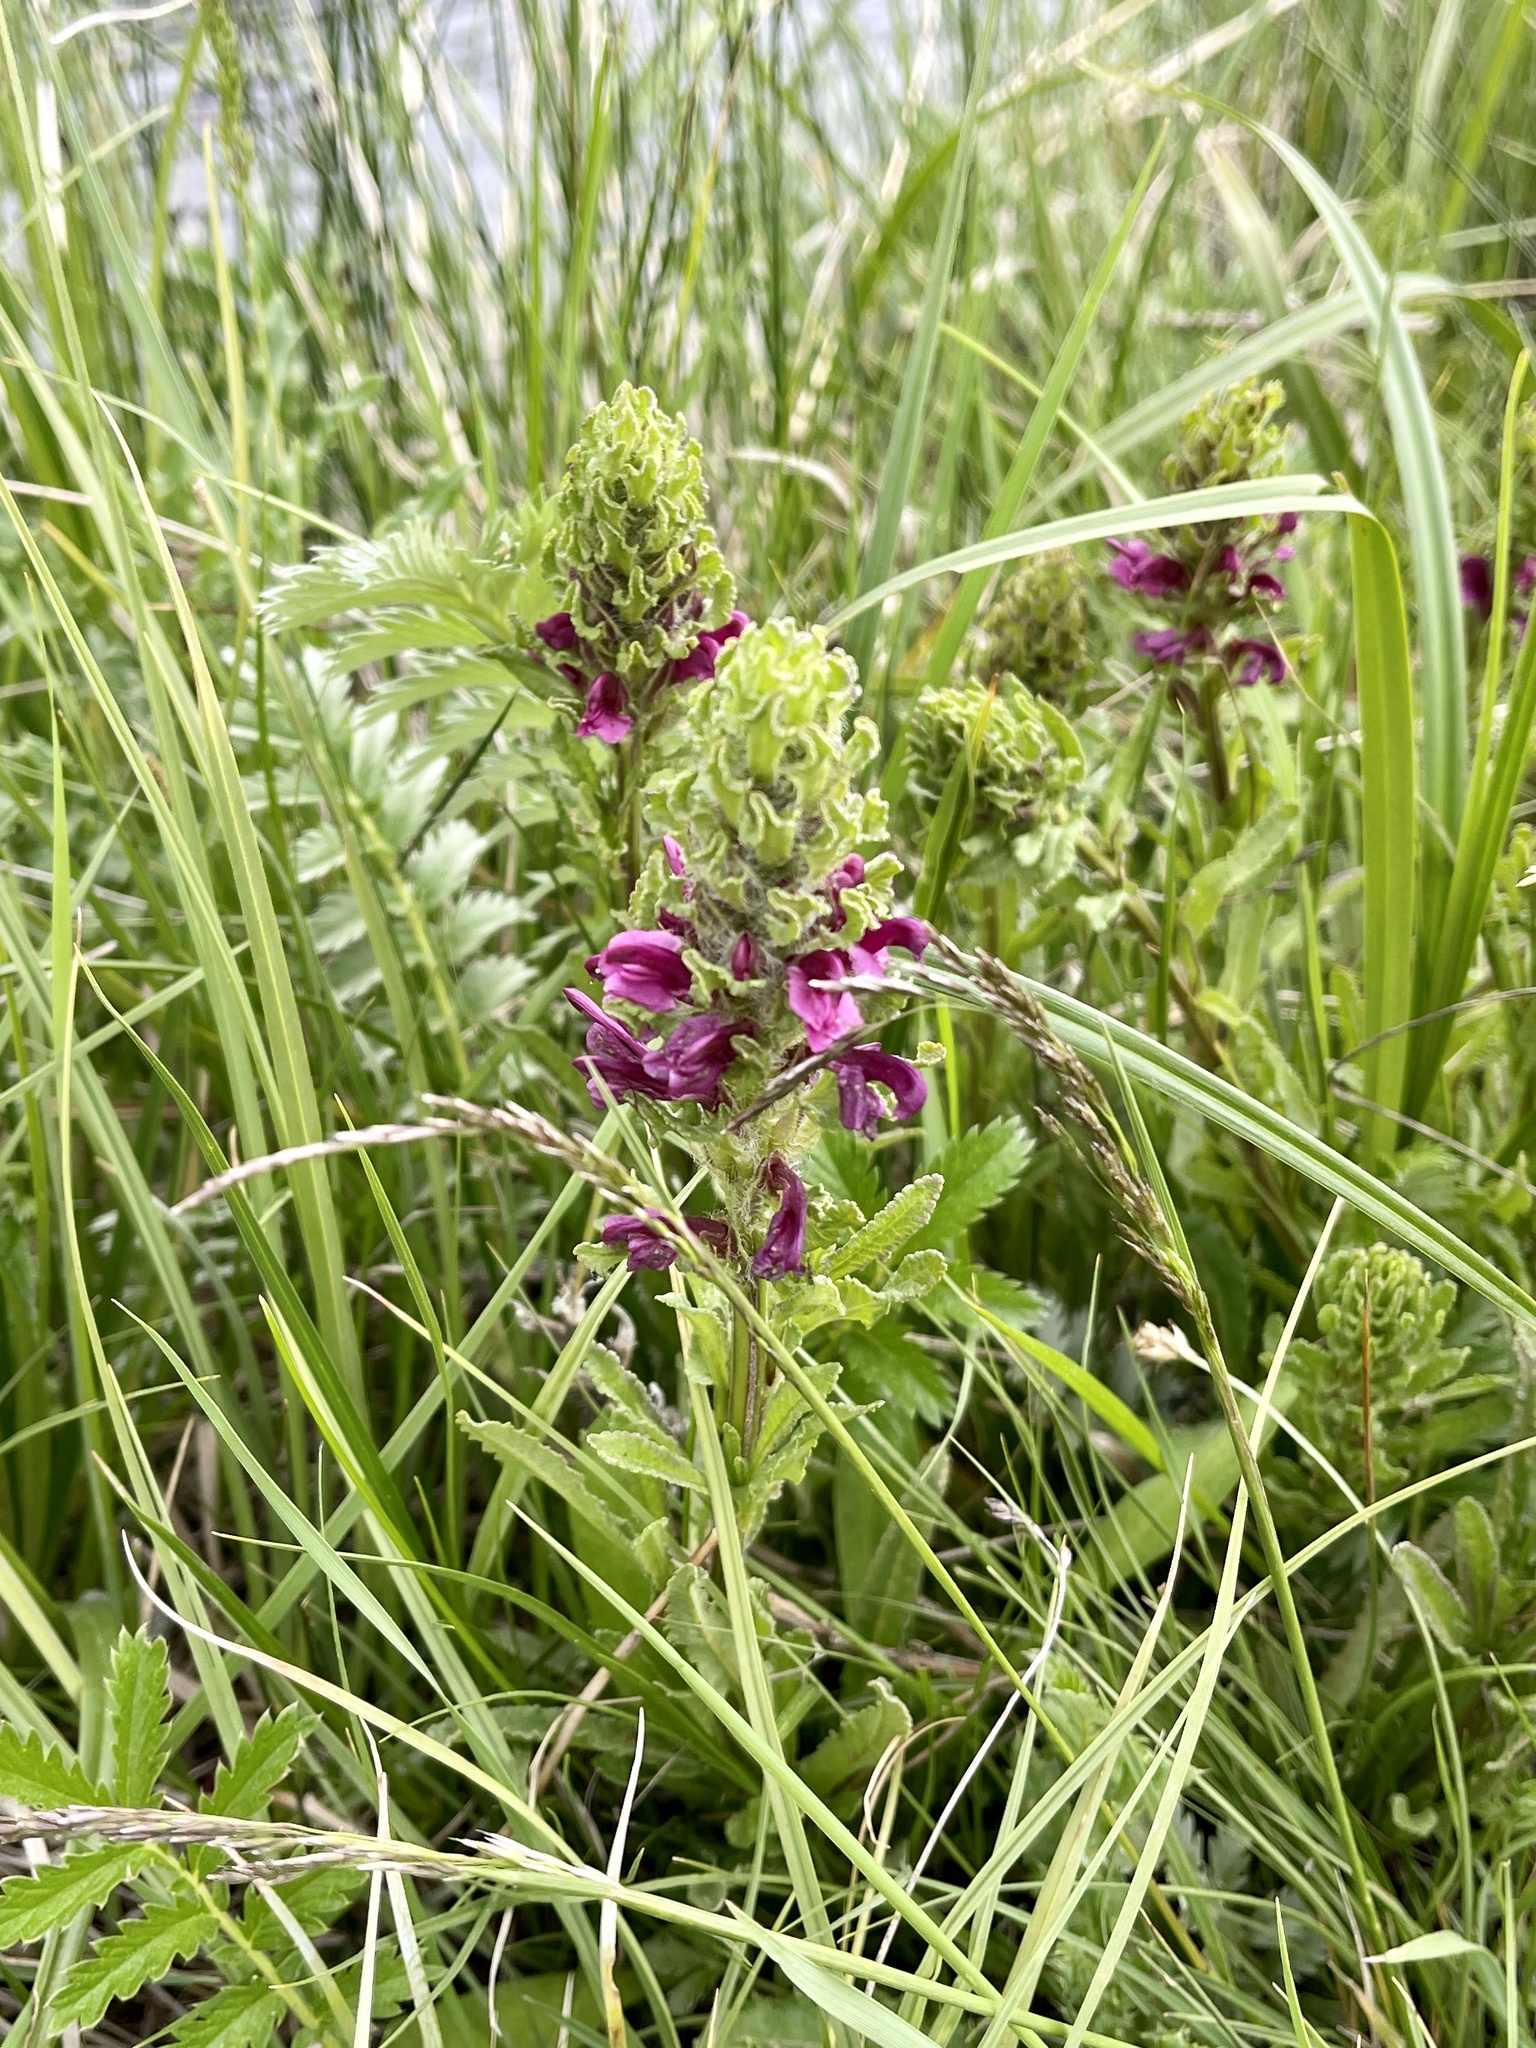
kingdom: Plantae
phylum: Tracheophyta
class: Magnoliopsida
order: Lamiales
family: Orobanchaceae
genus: Pedicularis
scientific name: Pedicularis crenulata
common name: Meadow lousewort
